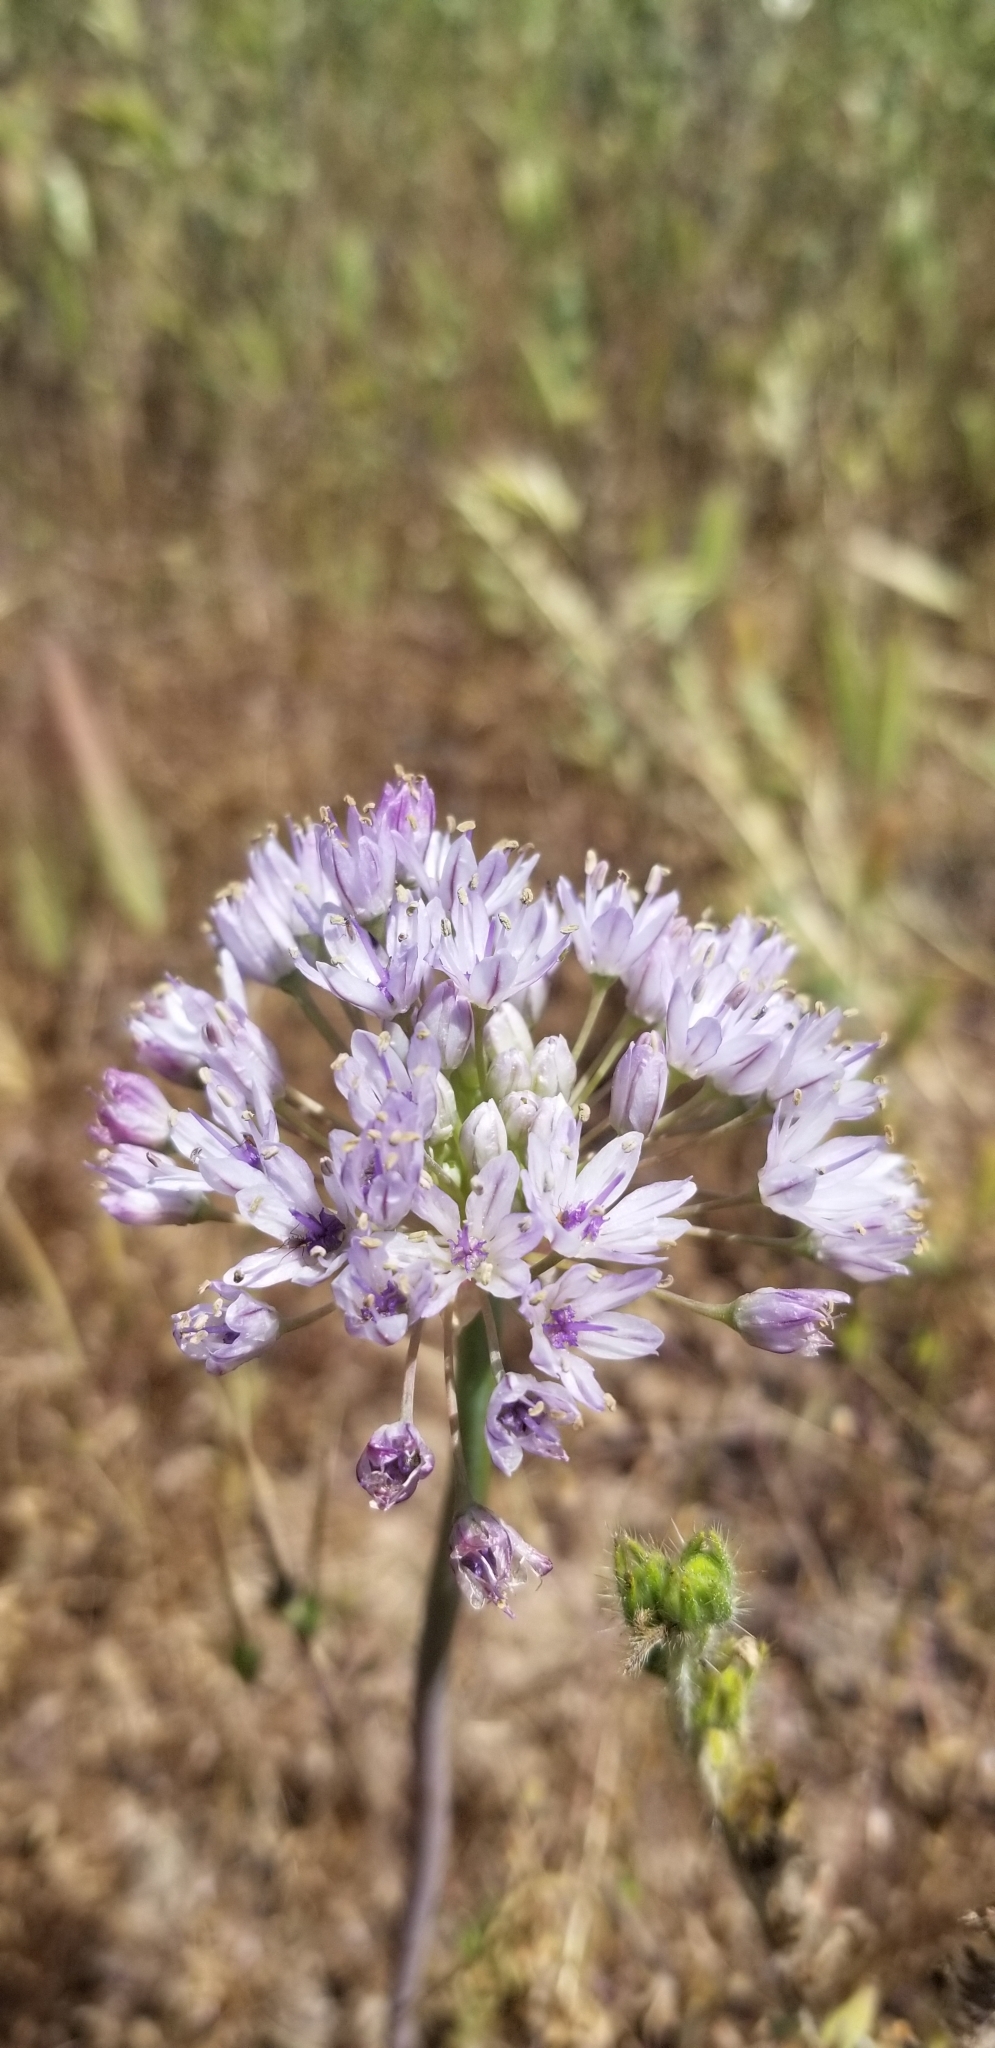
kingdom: Plantae
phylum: Tracheophyta
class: Liliopsida
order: Asparagales
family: Amaryllidaceae
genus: Allium
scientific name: Allium howellii
